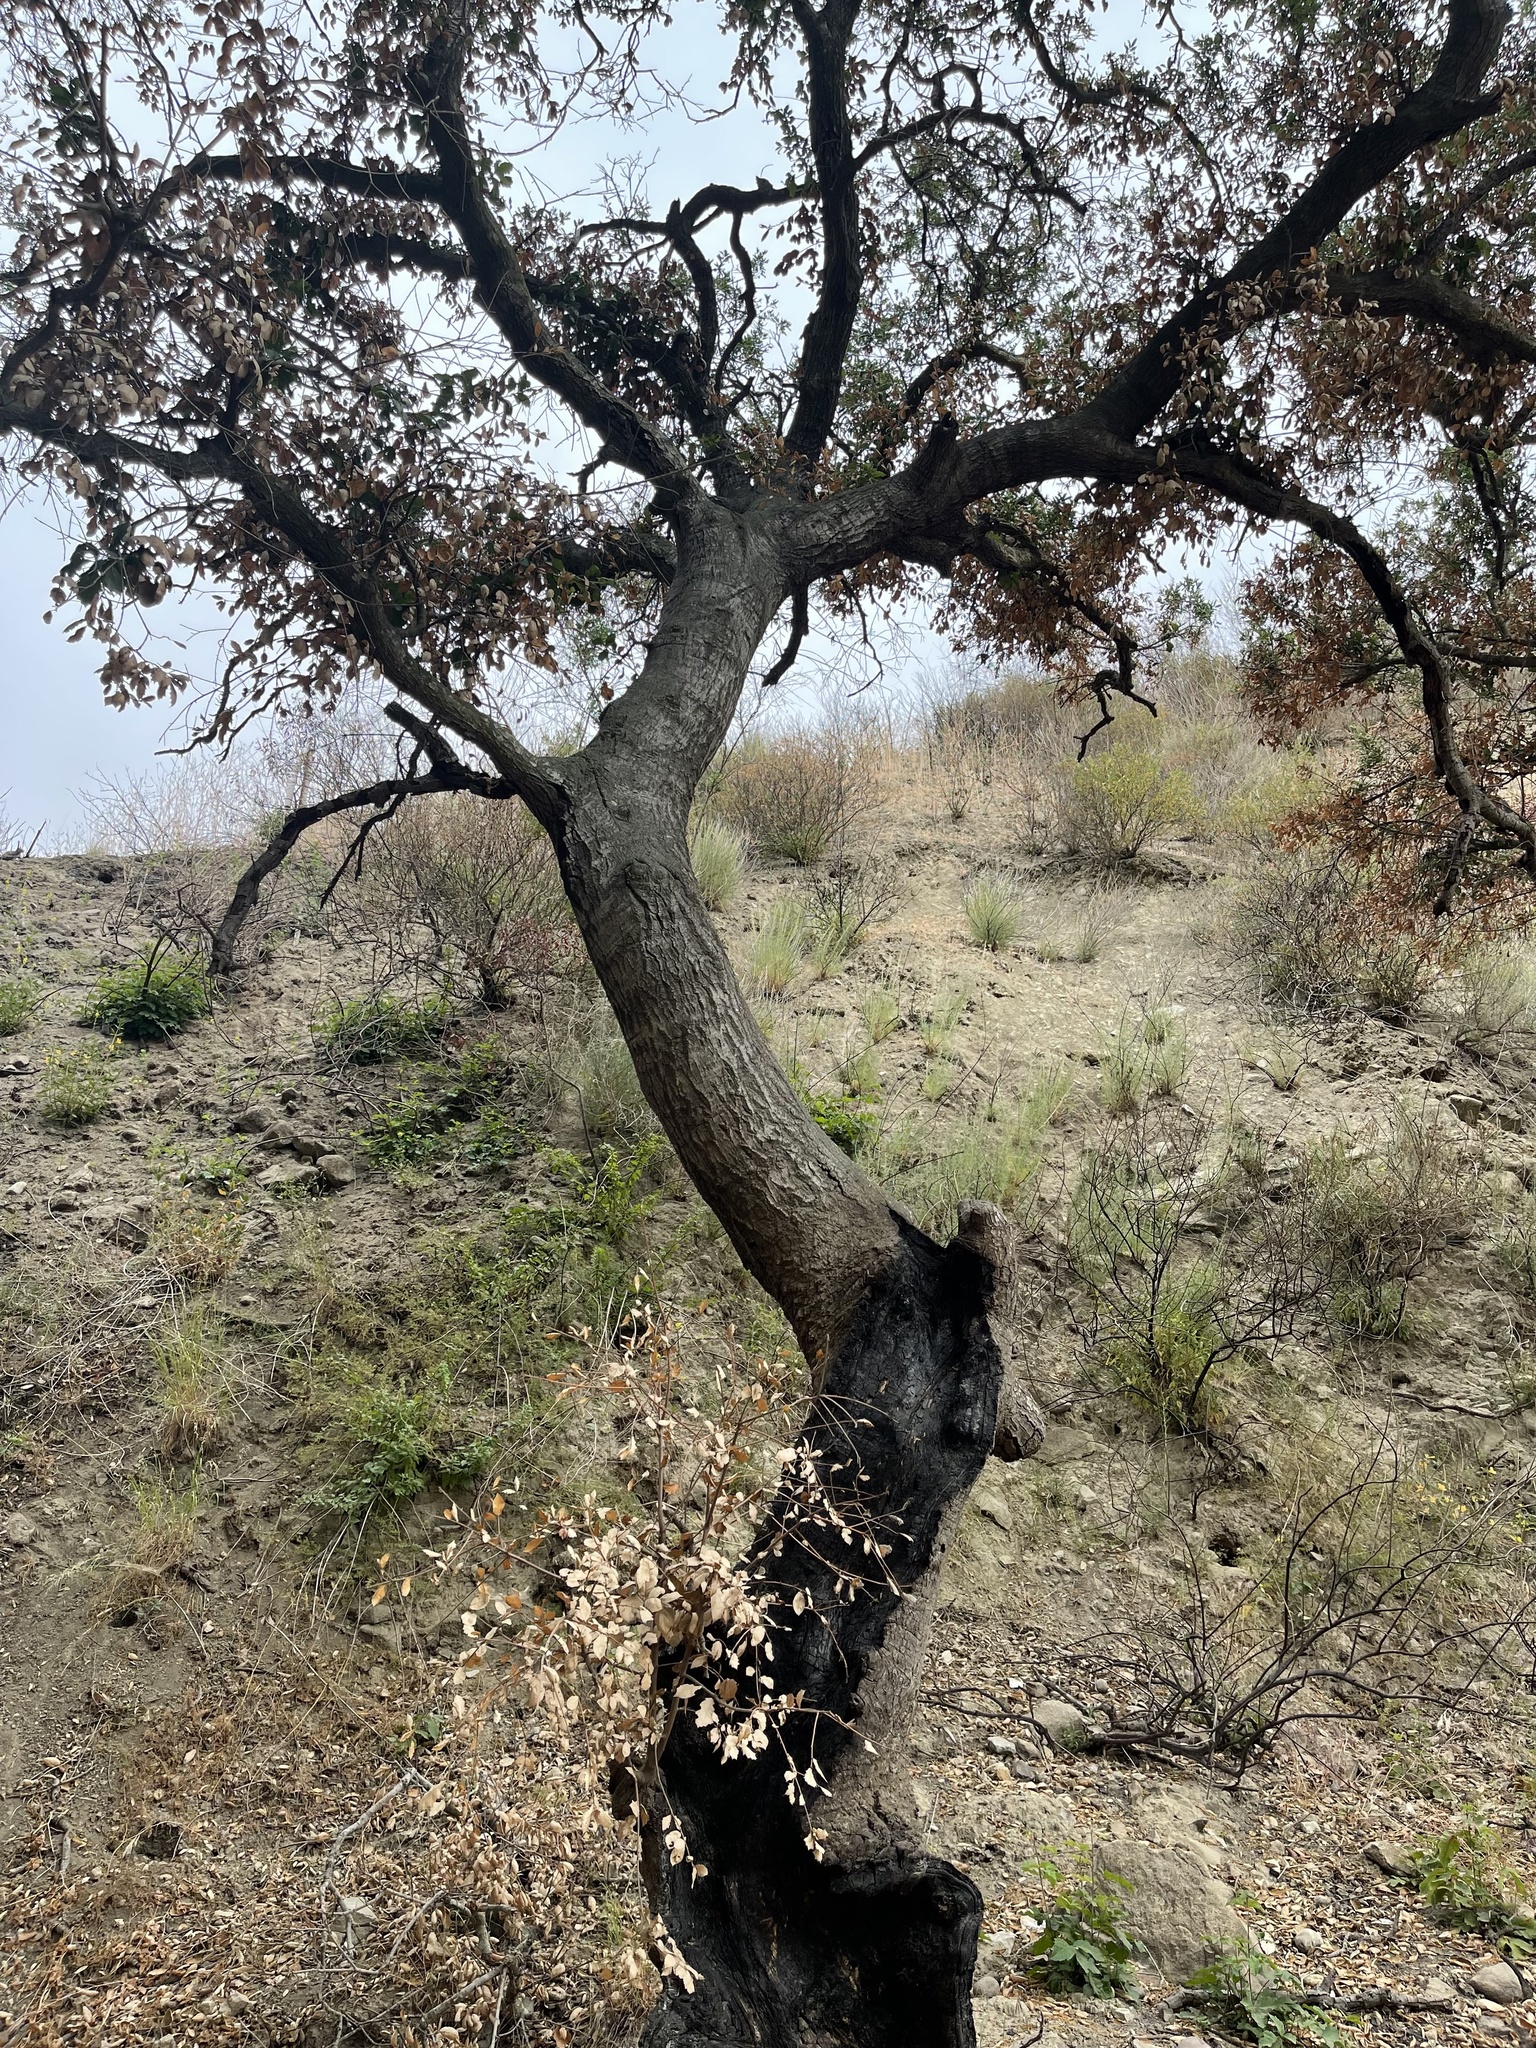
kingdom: Plantae
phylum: Tracheophyta
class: Magnoliopsida
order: Fagales
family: Fagaceae
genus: Quercus
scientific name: Quercus agrifolia
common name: California live oak
